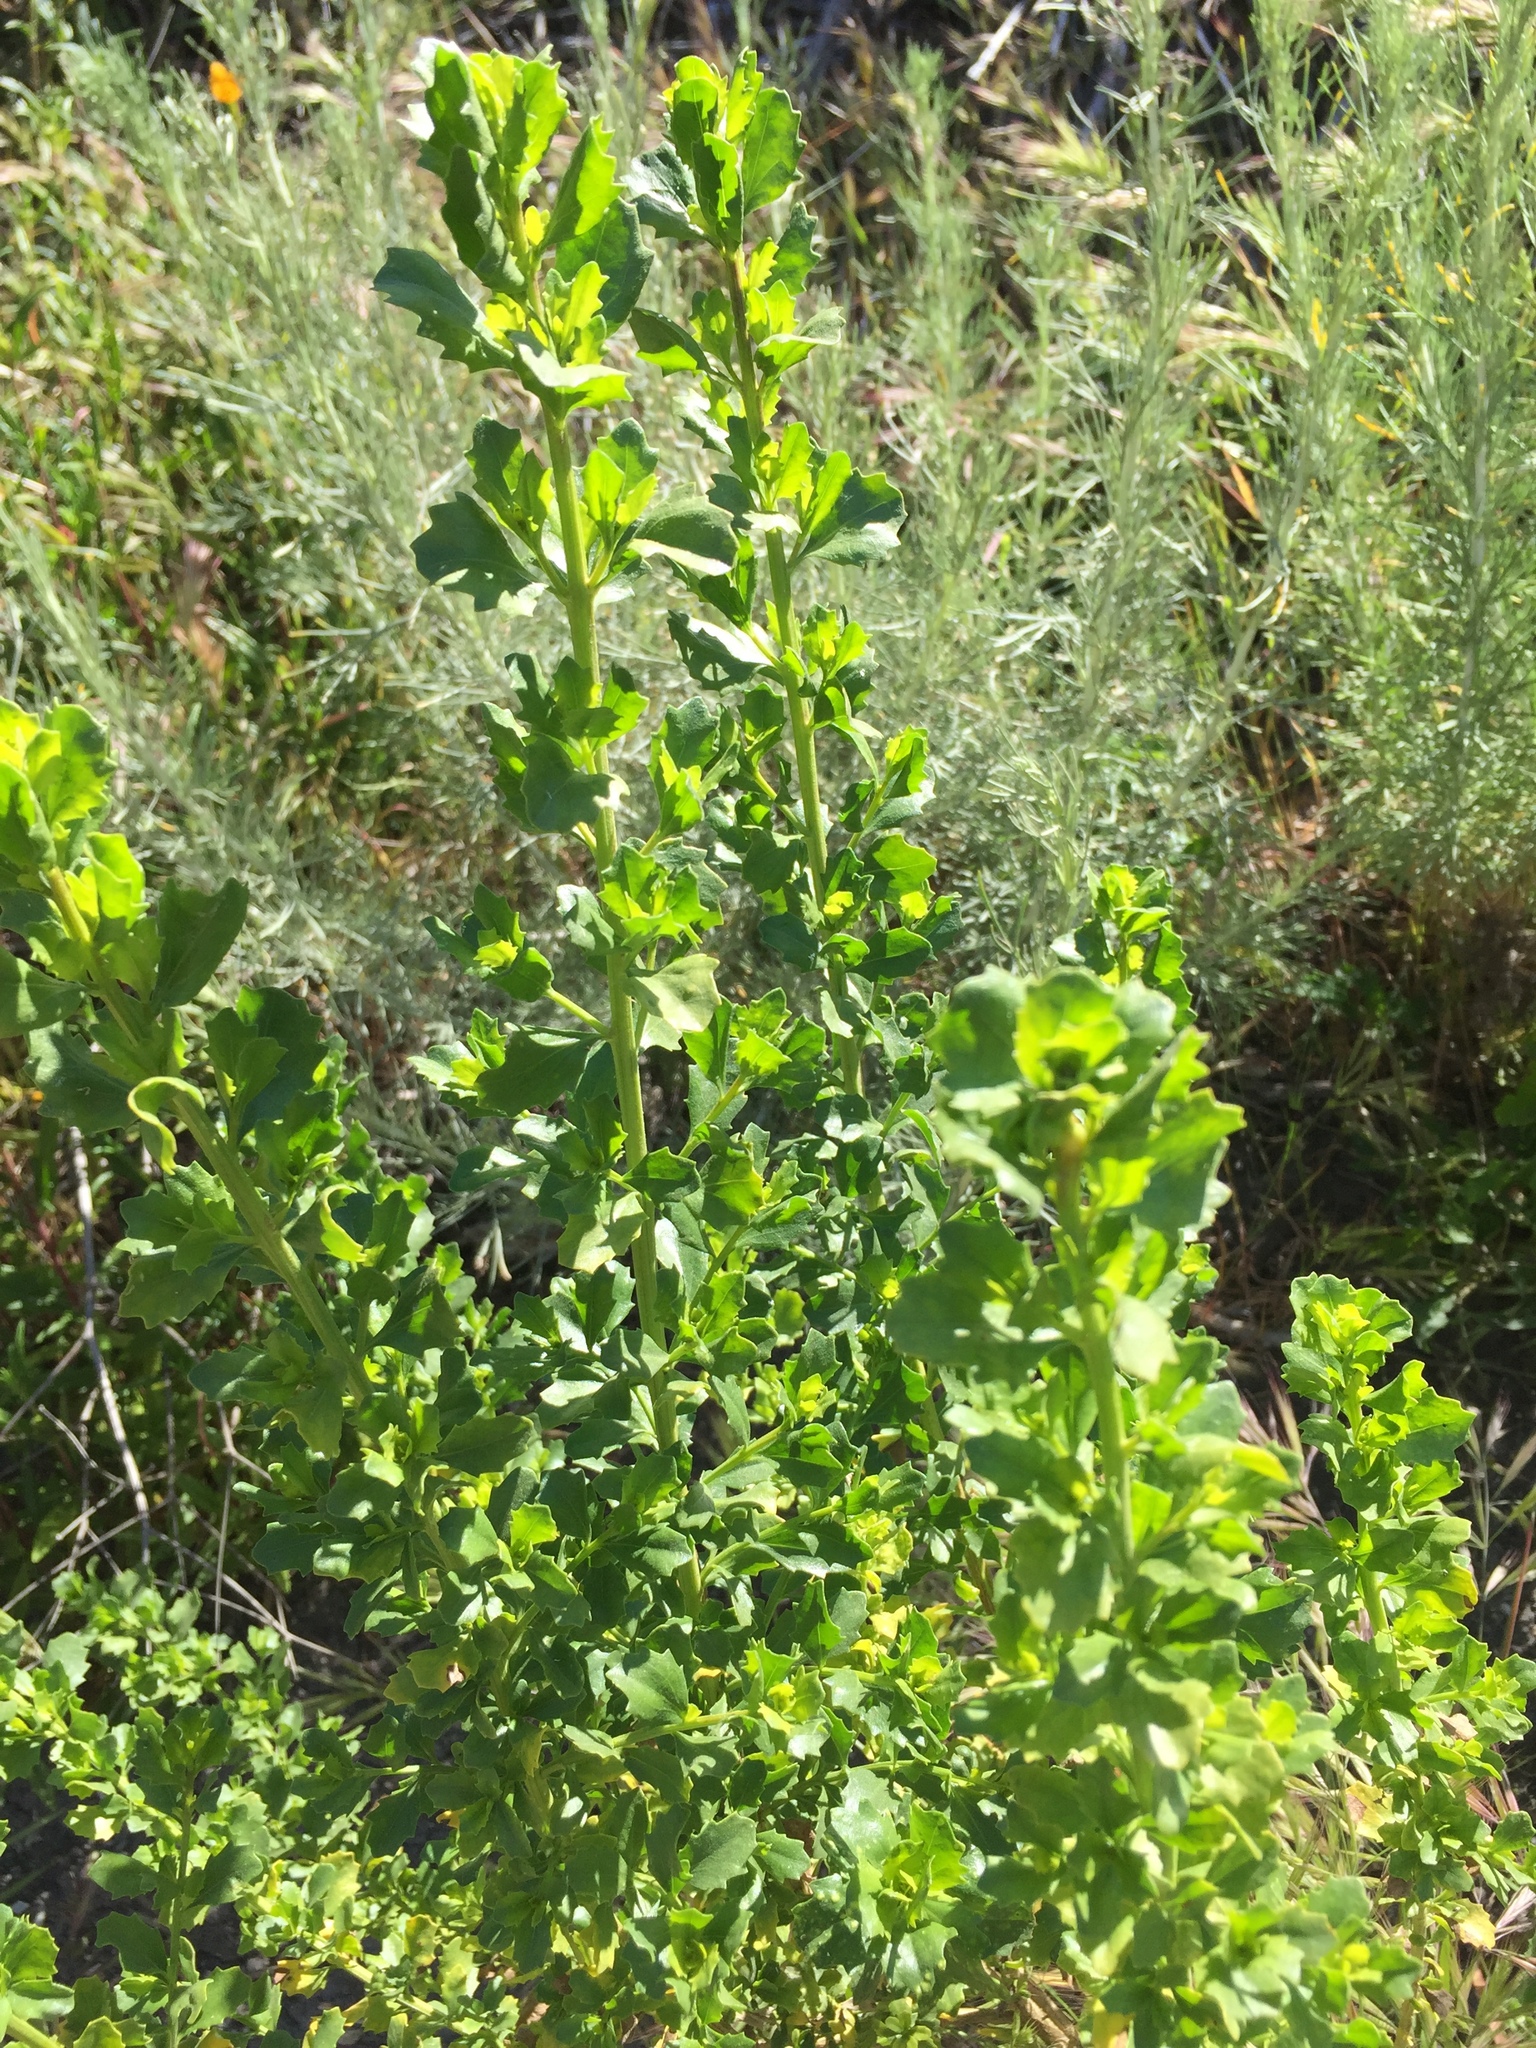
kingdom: Plantae
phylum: Tracheophyta
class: Magnoliopsida
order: Asterales
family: Asteraceae
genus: Baccharis
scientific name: Baccharis pilularis
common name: Coyotebrush
